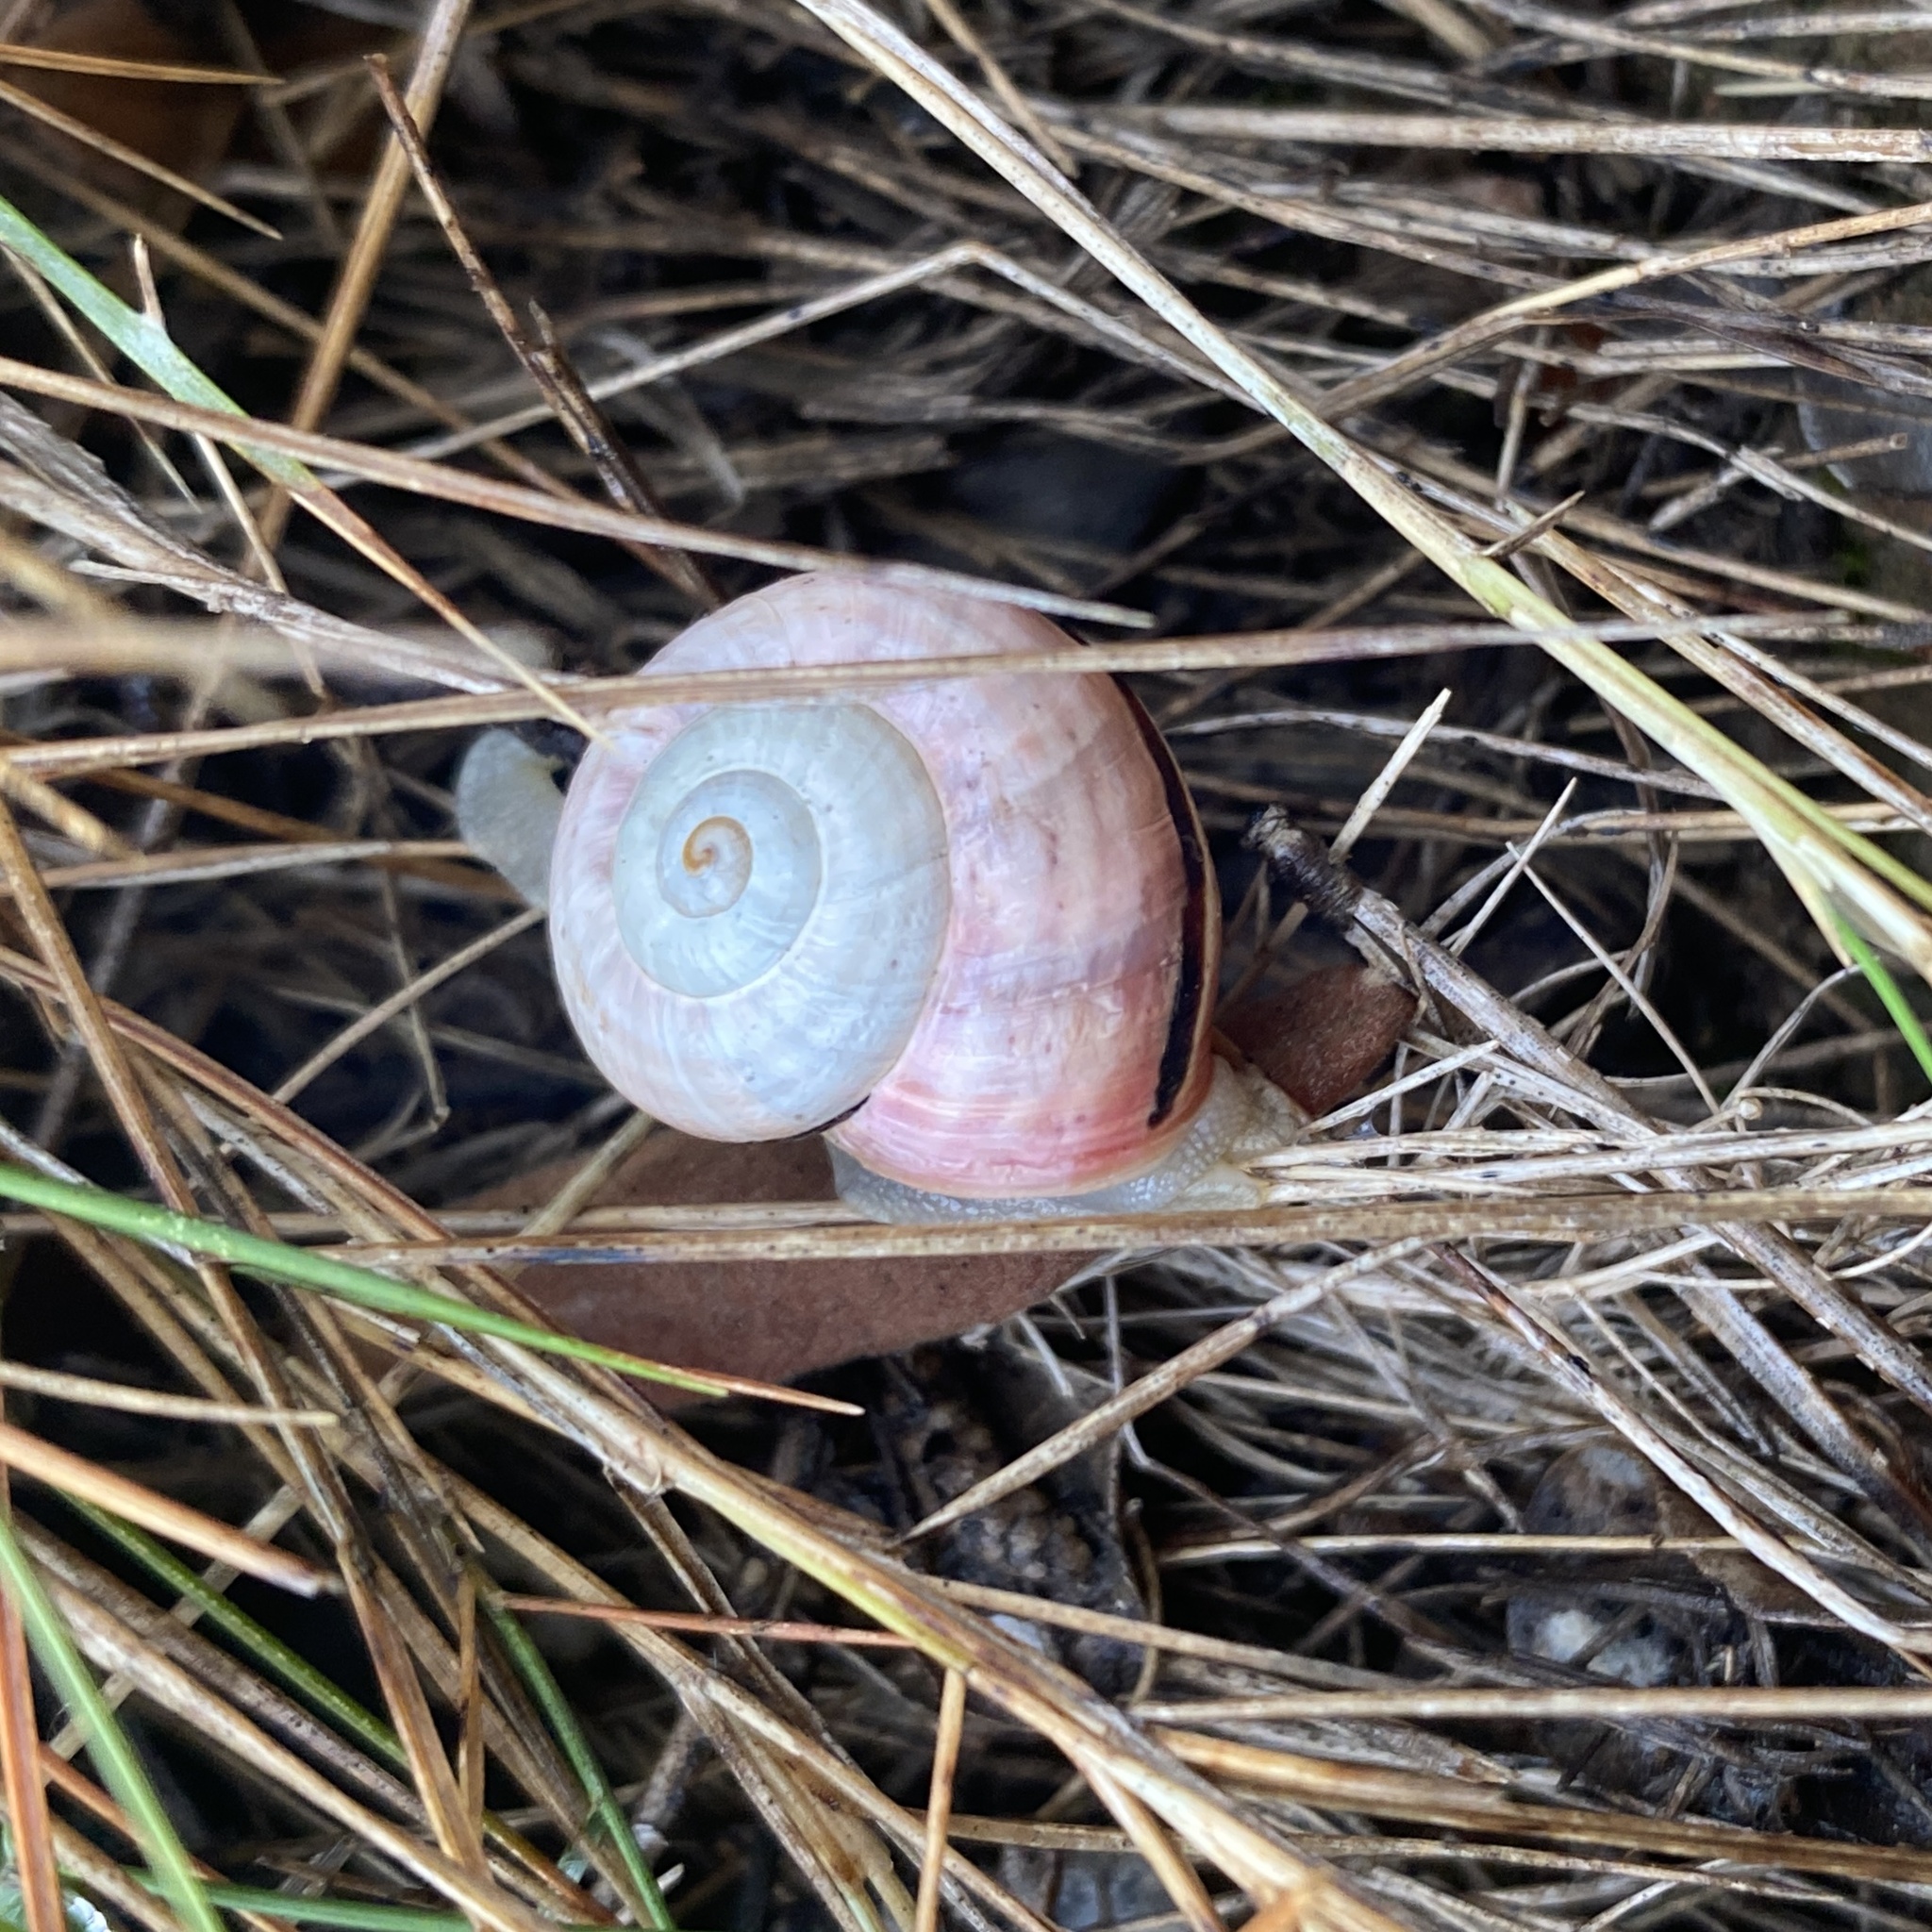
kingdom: Animalia
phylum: Mollusca
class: Gastropoda
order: Stylommatophora
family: Helicidae
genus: Pseudotachea
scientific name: Pseudotachea splendida
